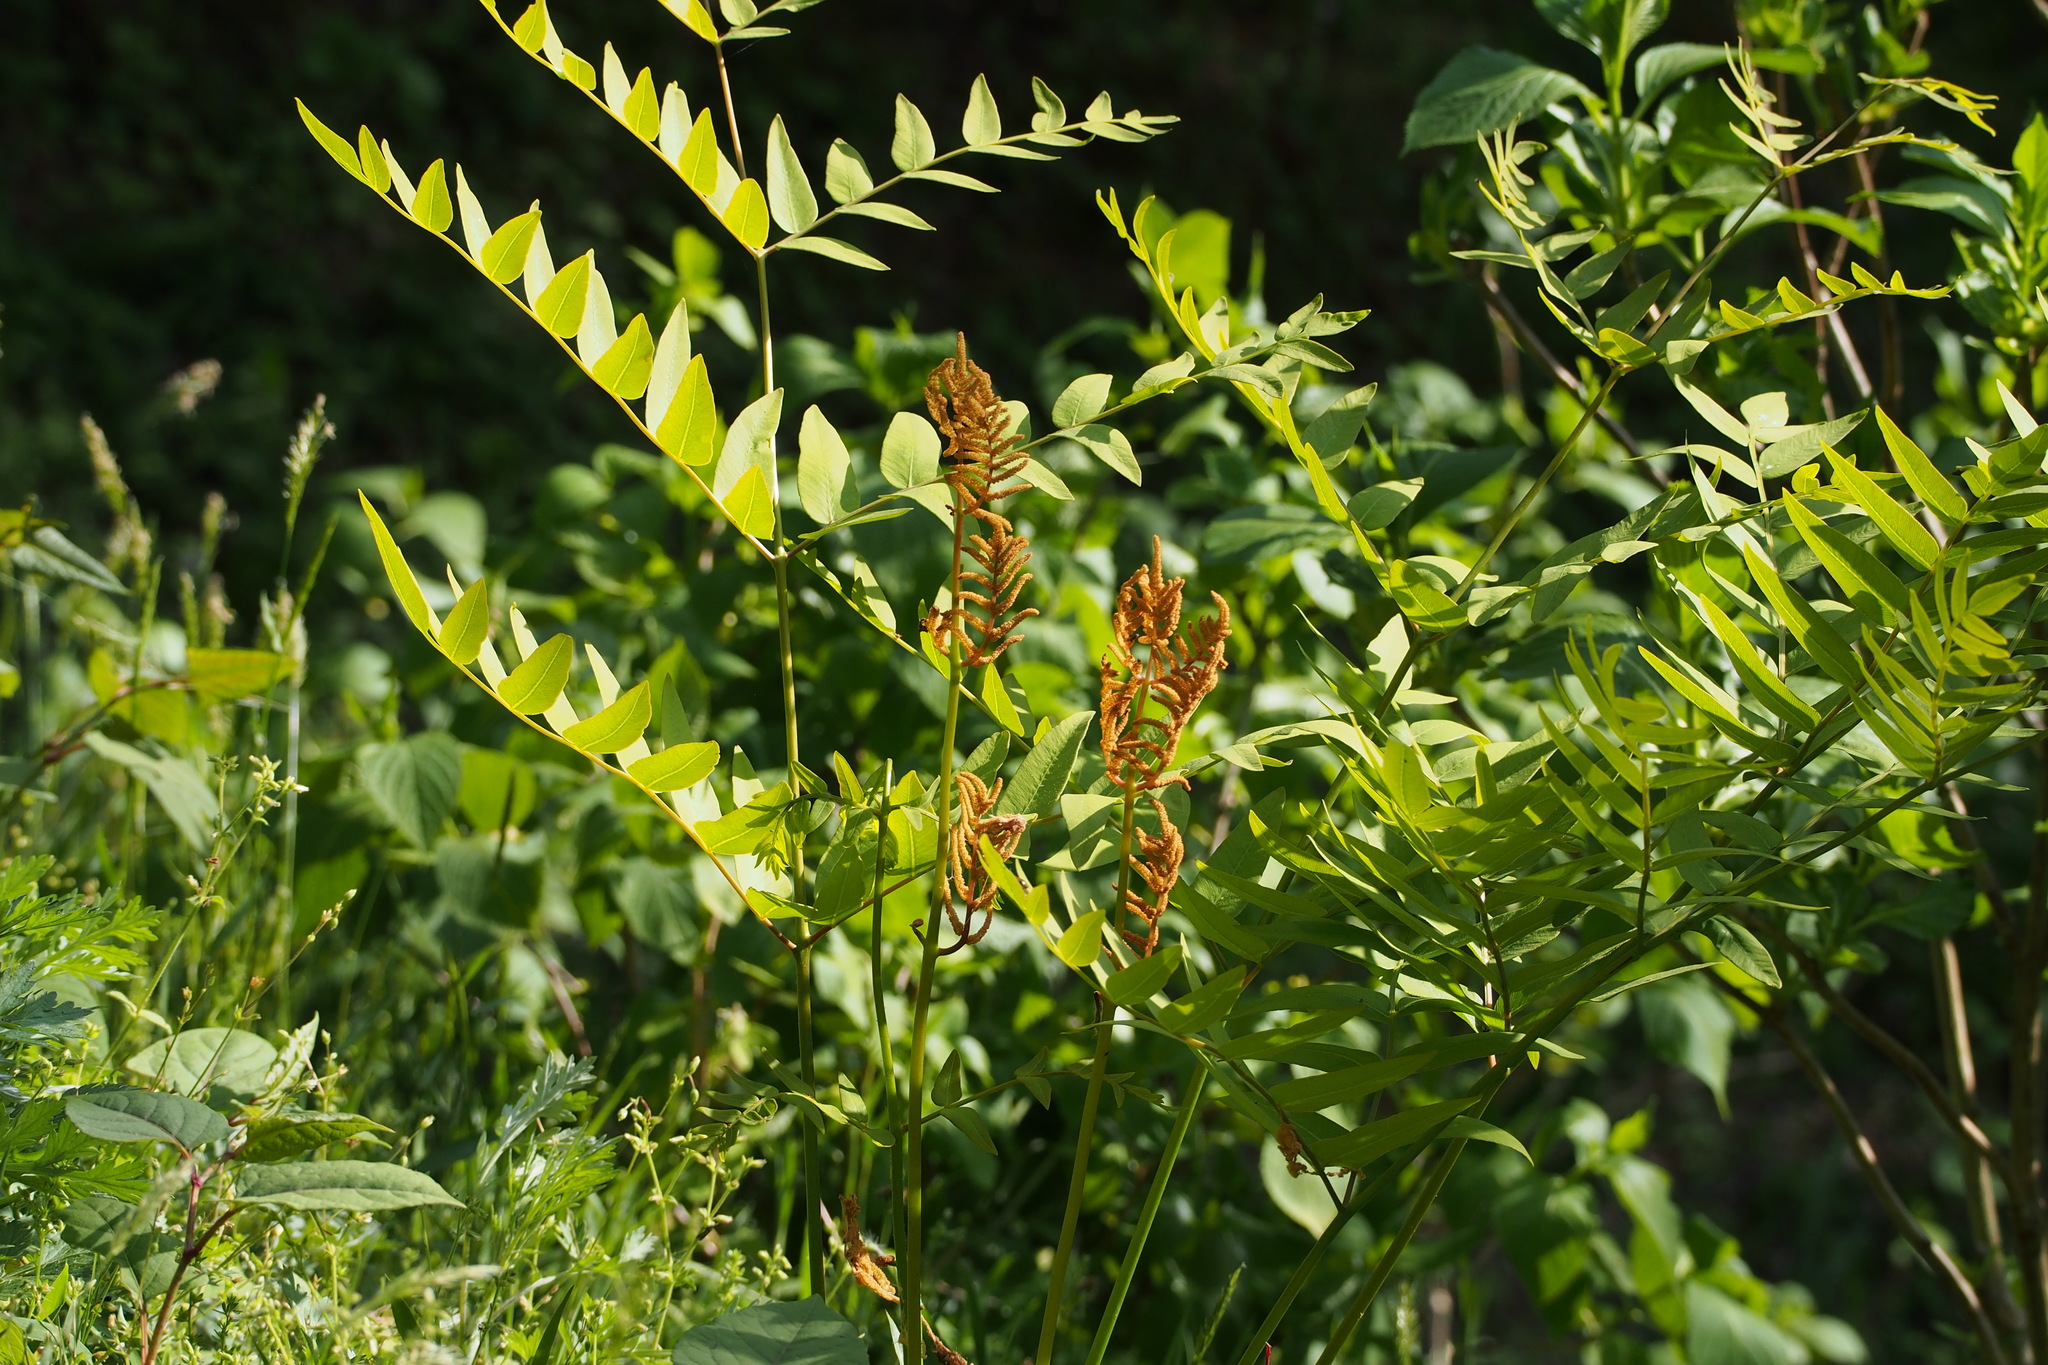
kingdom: Plantae
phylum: Tracheophyta
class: Polypodiopsida
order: Osmundales
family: Osmundaceae
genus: Osmunda
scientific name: Osmunda japonica
